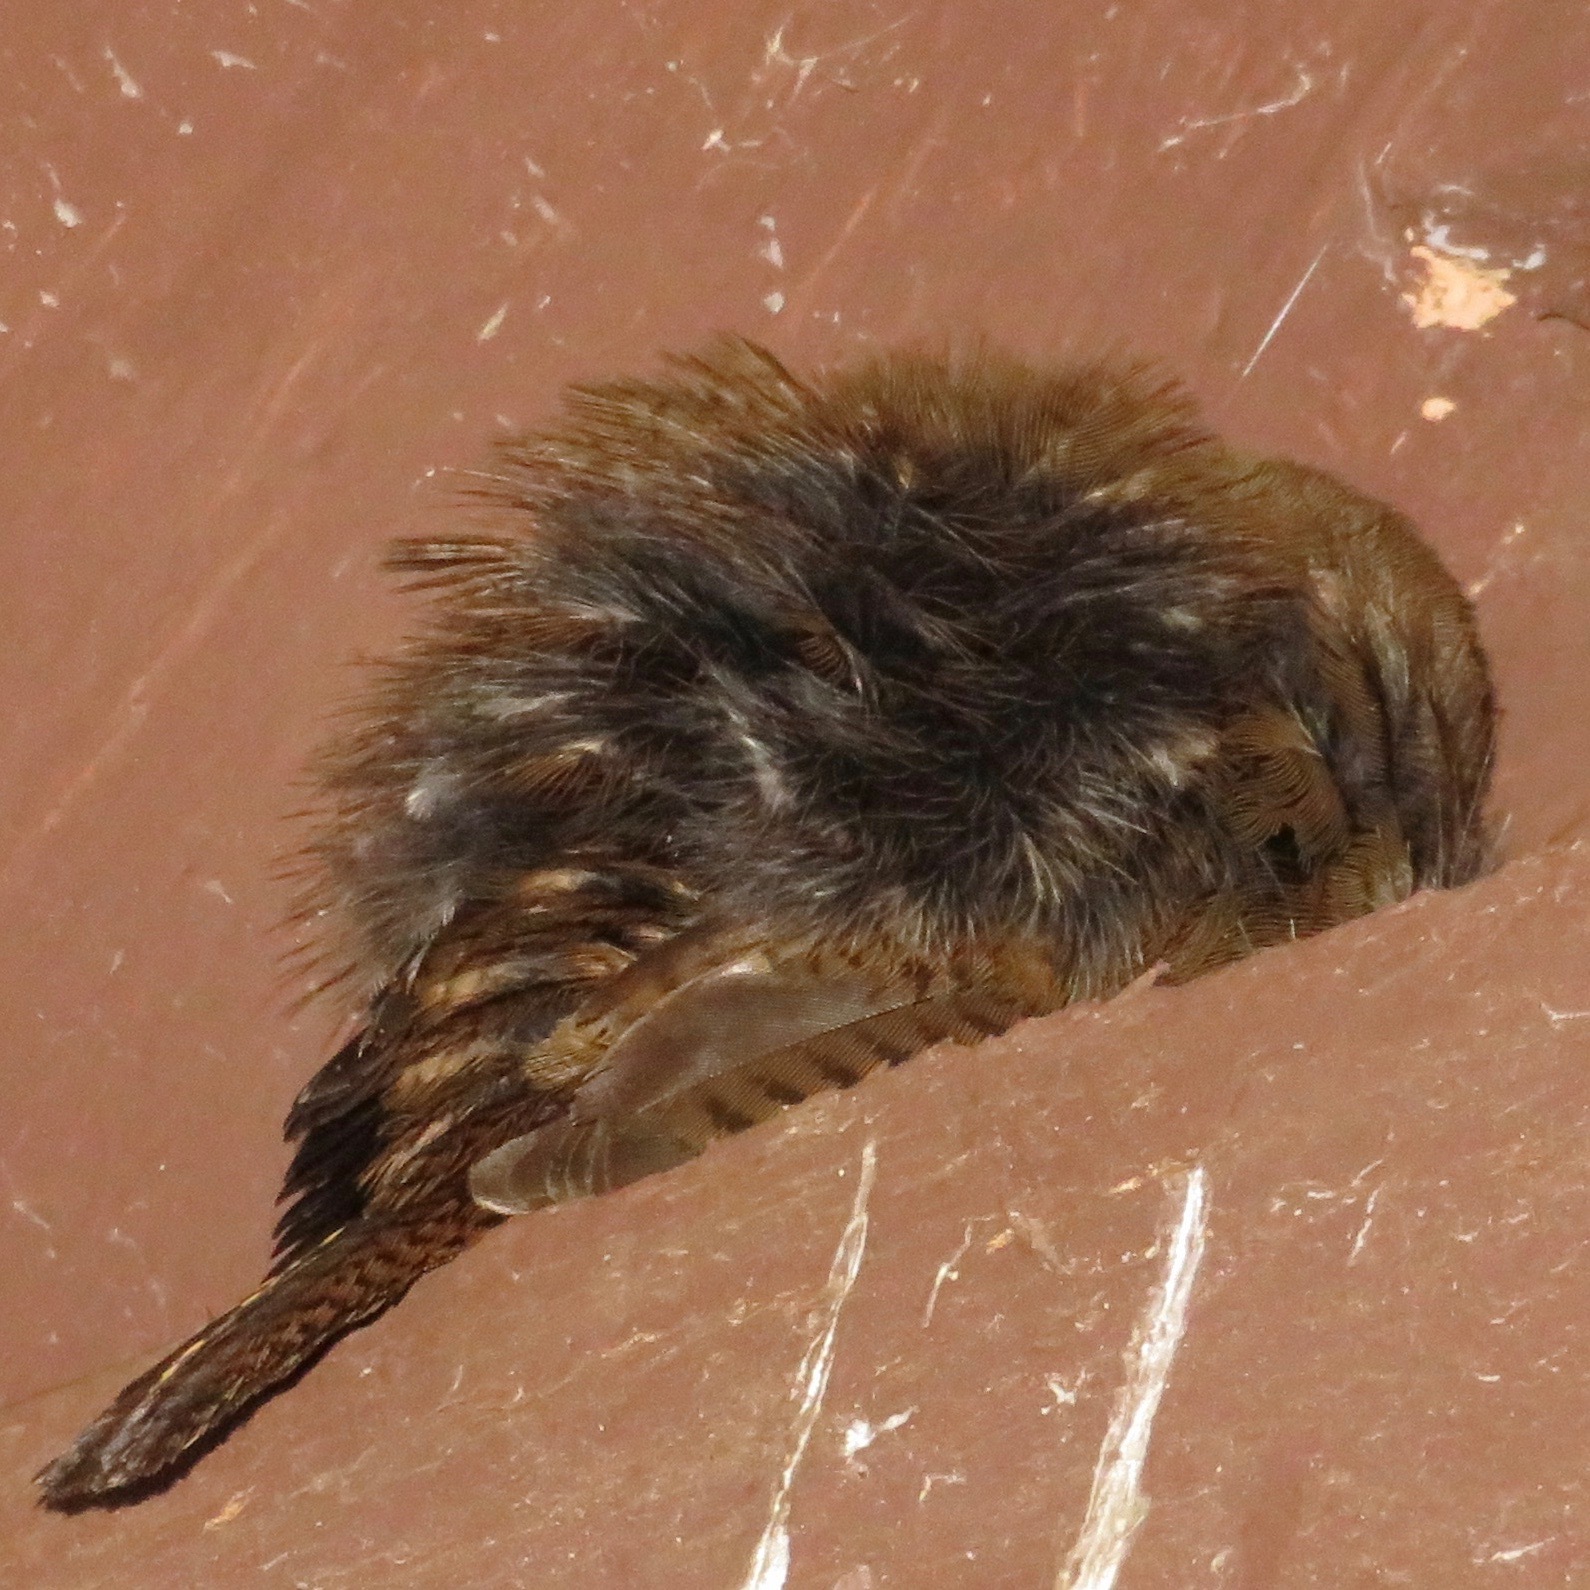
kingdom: Animalia
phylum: Chordata
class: Aves
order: Passeriformes
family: Troglodytidae
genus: Troglodytes
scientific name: Troglodytes aedon
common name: House wren
